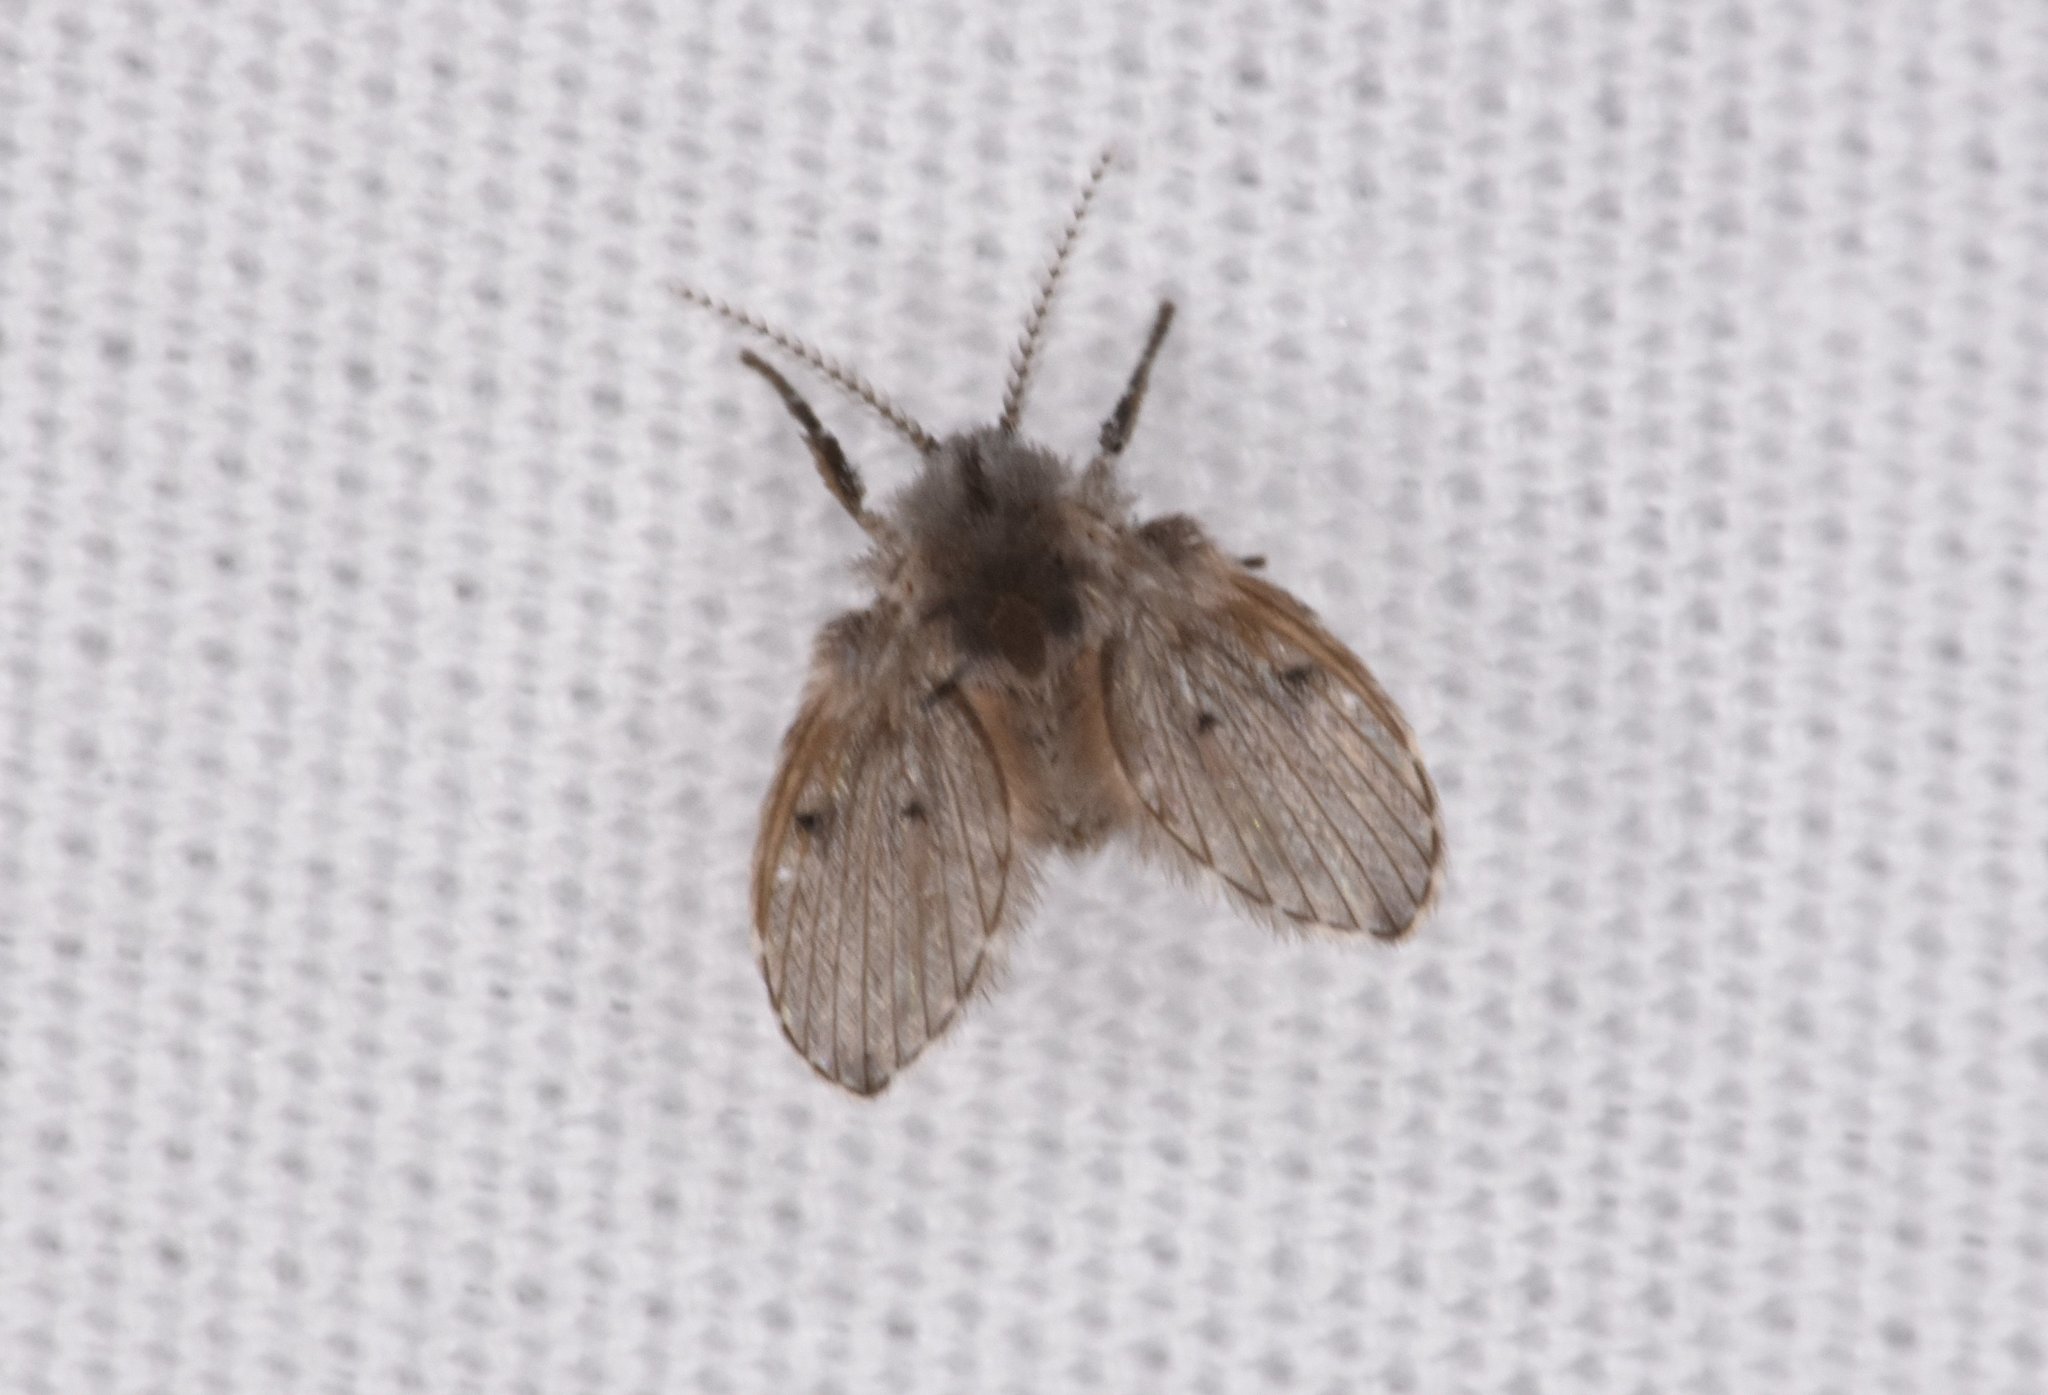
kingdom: Animalia
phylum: Arthropoda
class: Insecta
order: Diptera
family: Psychodidae
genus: Clogmia
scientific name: Clogmia albipunctatus
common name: White-spotted moth fly
